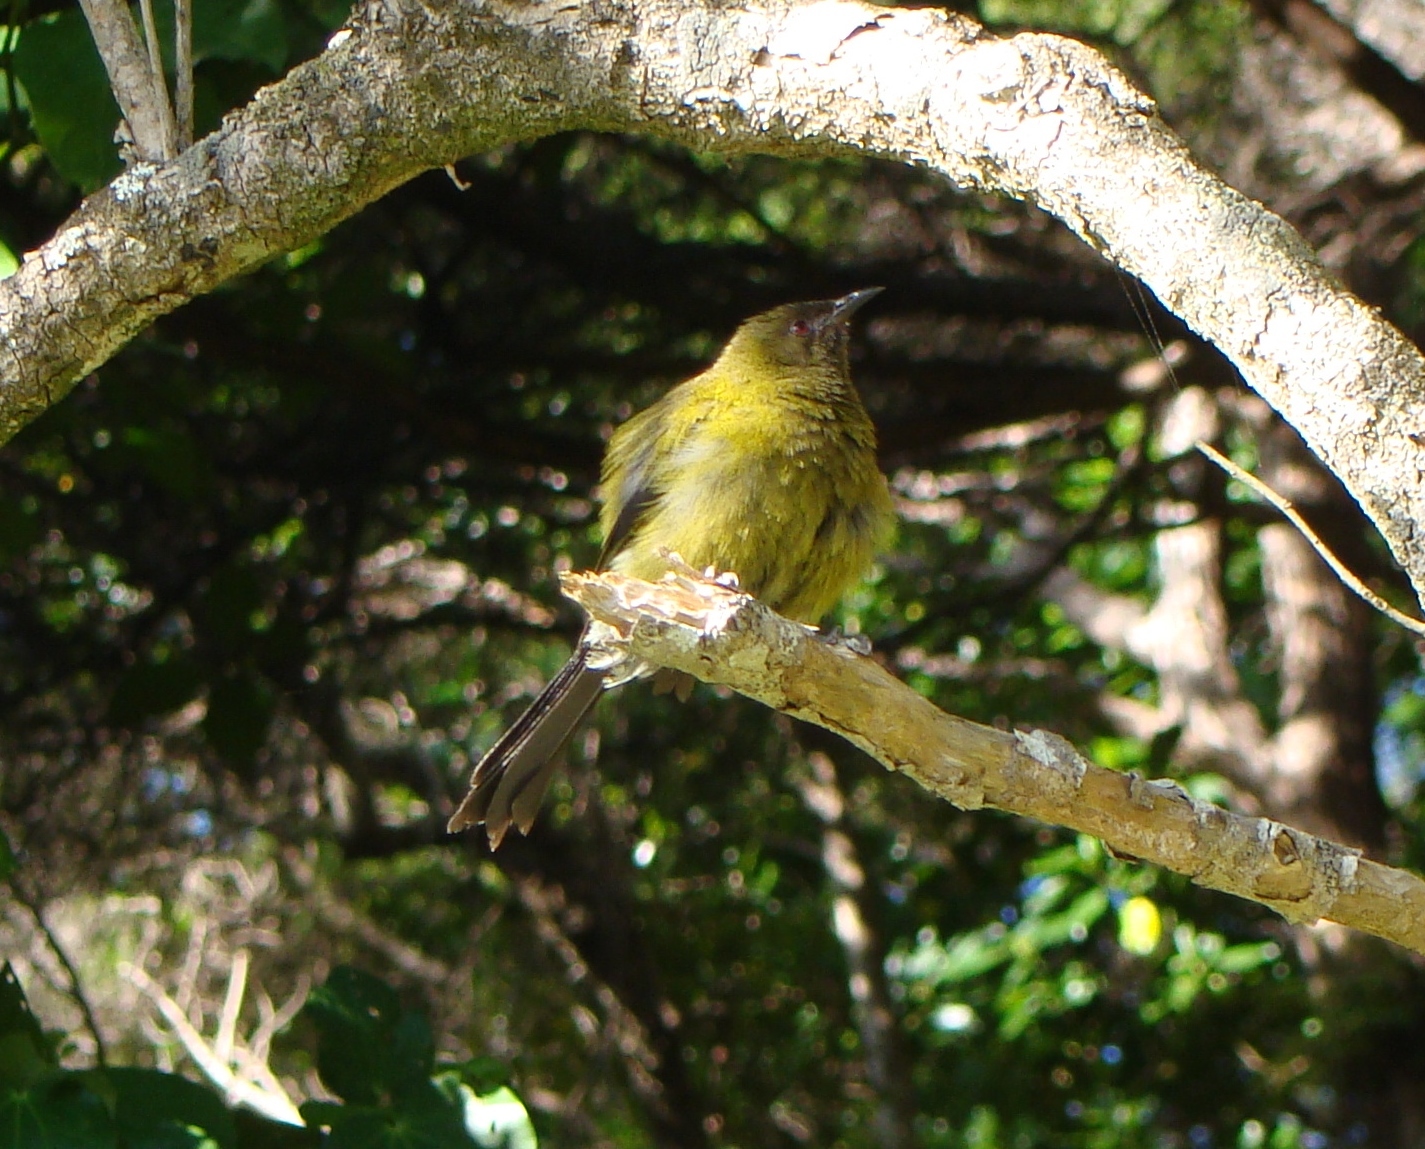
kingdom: Animalia
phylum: Chordata
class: Aves
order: Passeriformes
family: Meliphagidae
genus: Anthornis
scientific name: Anthornis melanura
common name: New zealand bellbird
